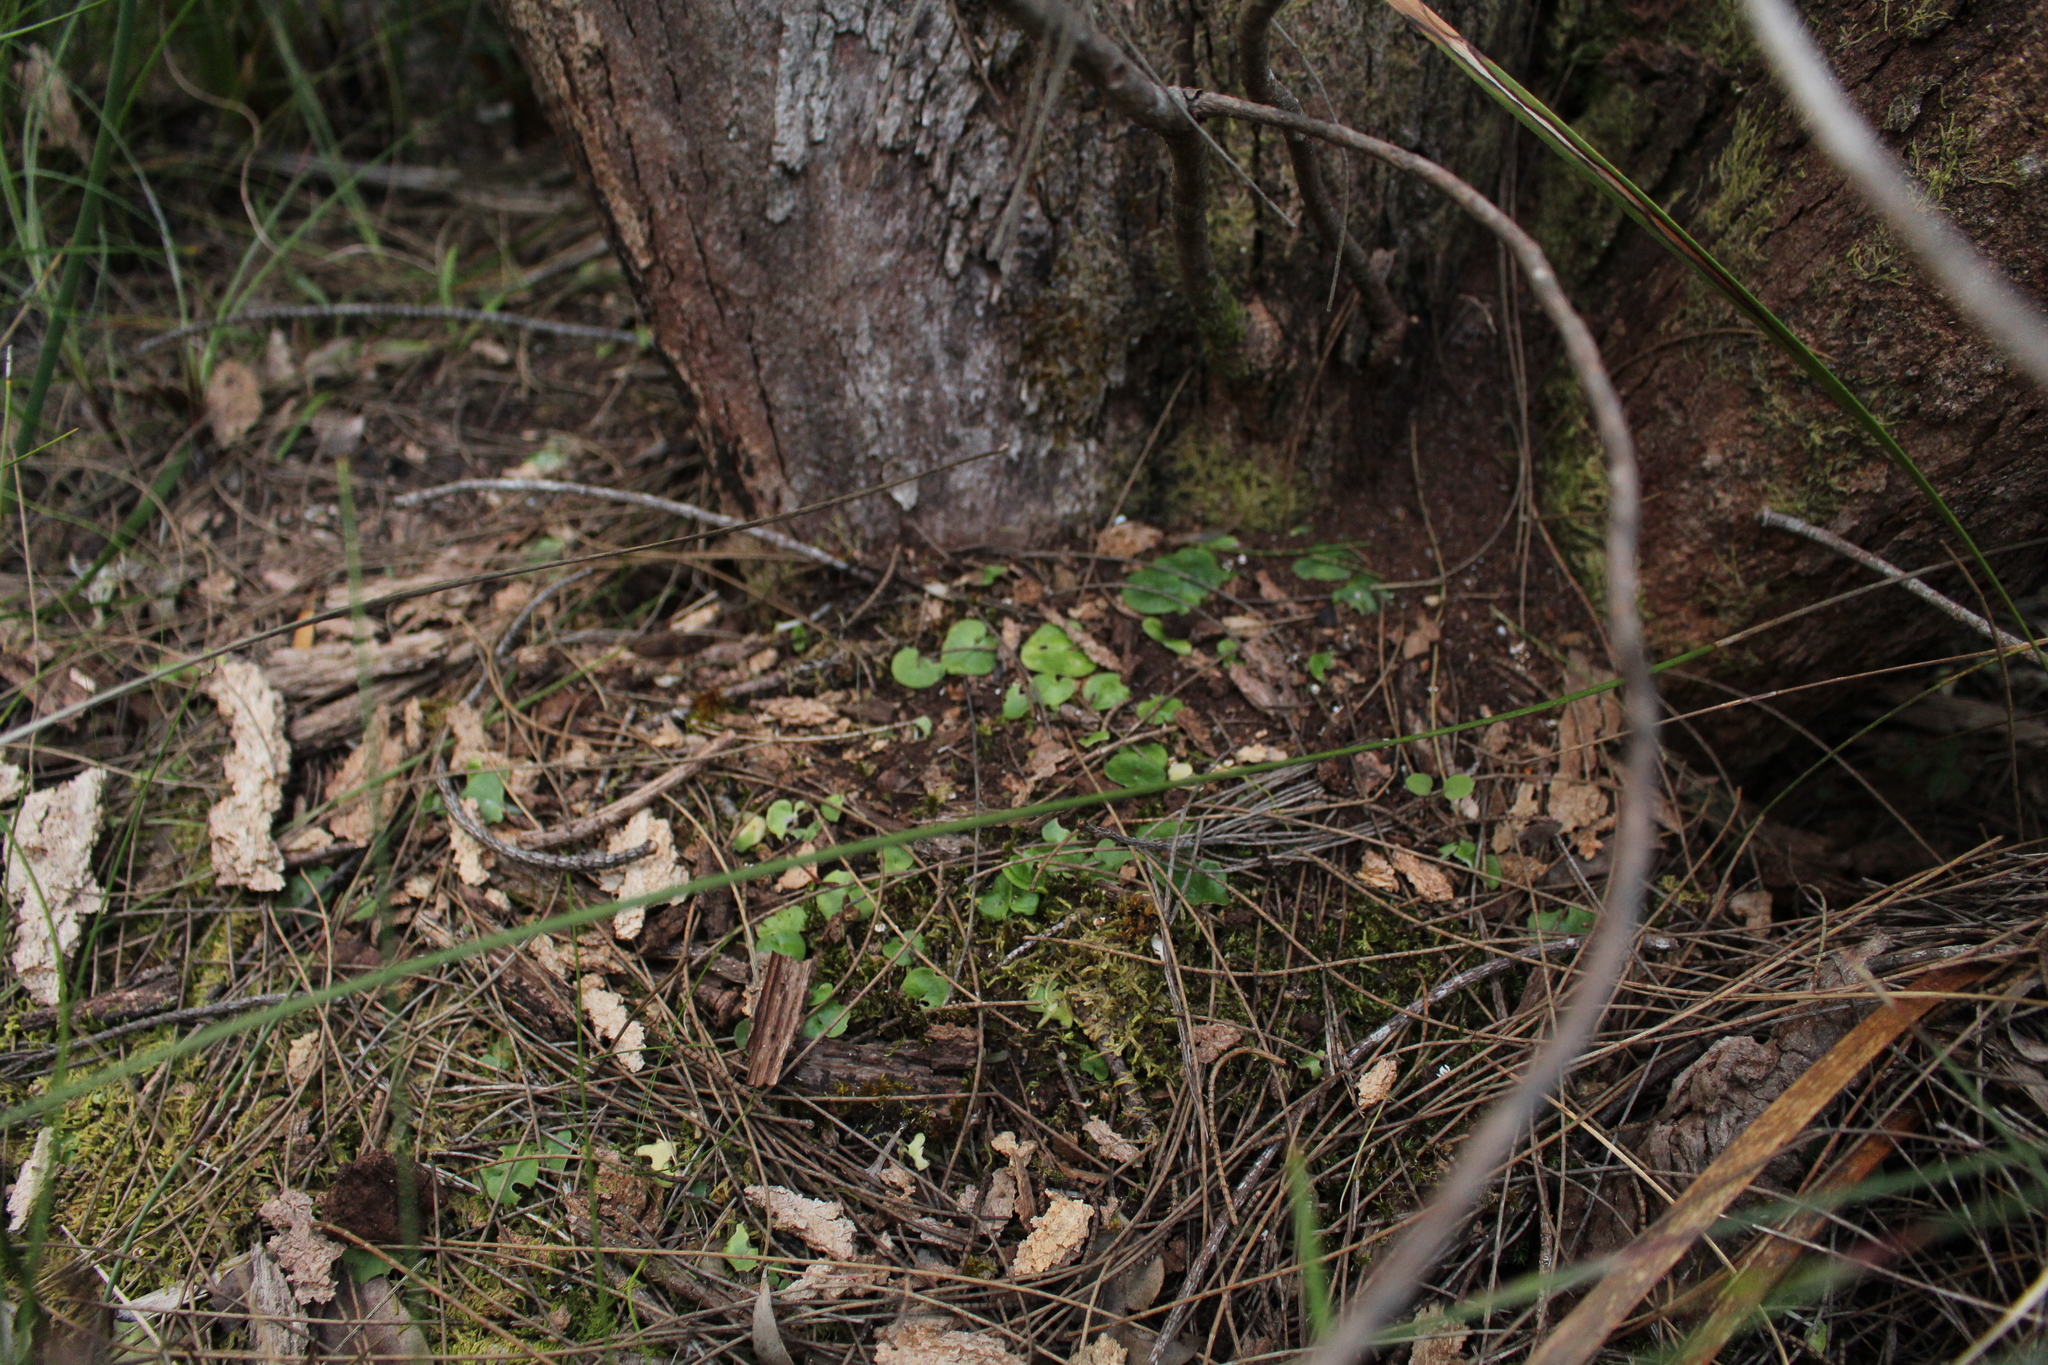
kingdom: Plantae
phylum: Tracheophyta
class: Liliopsida
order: Asparagales
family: Orchidaceae
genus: Corybas
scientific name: Corybas recurvus
